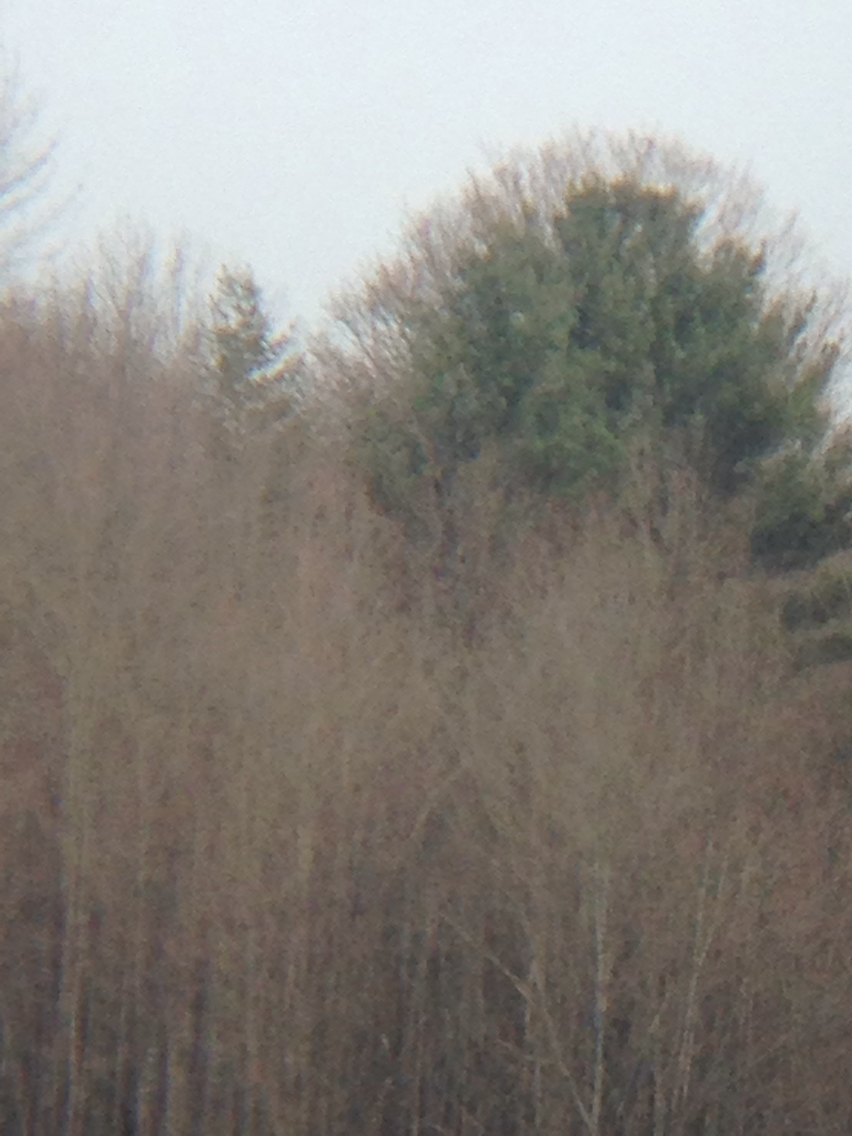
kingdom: Plantae
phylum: Tracheophyta
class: Pinopsida
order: Pinales
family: Pinaceae
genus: Pinus
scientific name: Pinus strobus
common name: Weymouth pine
